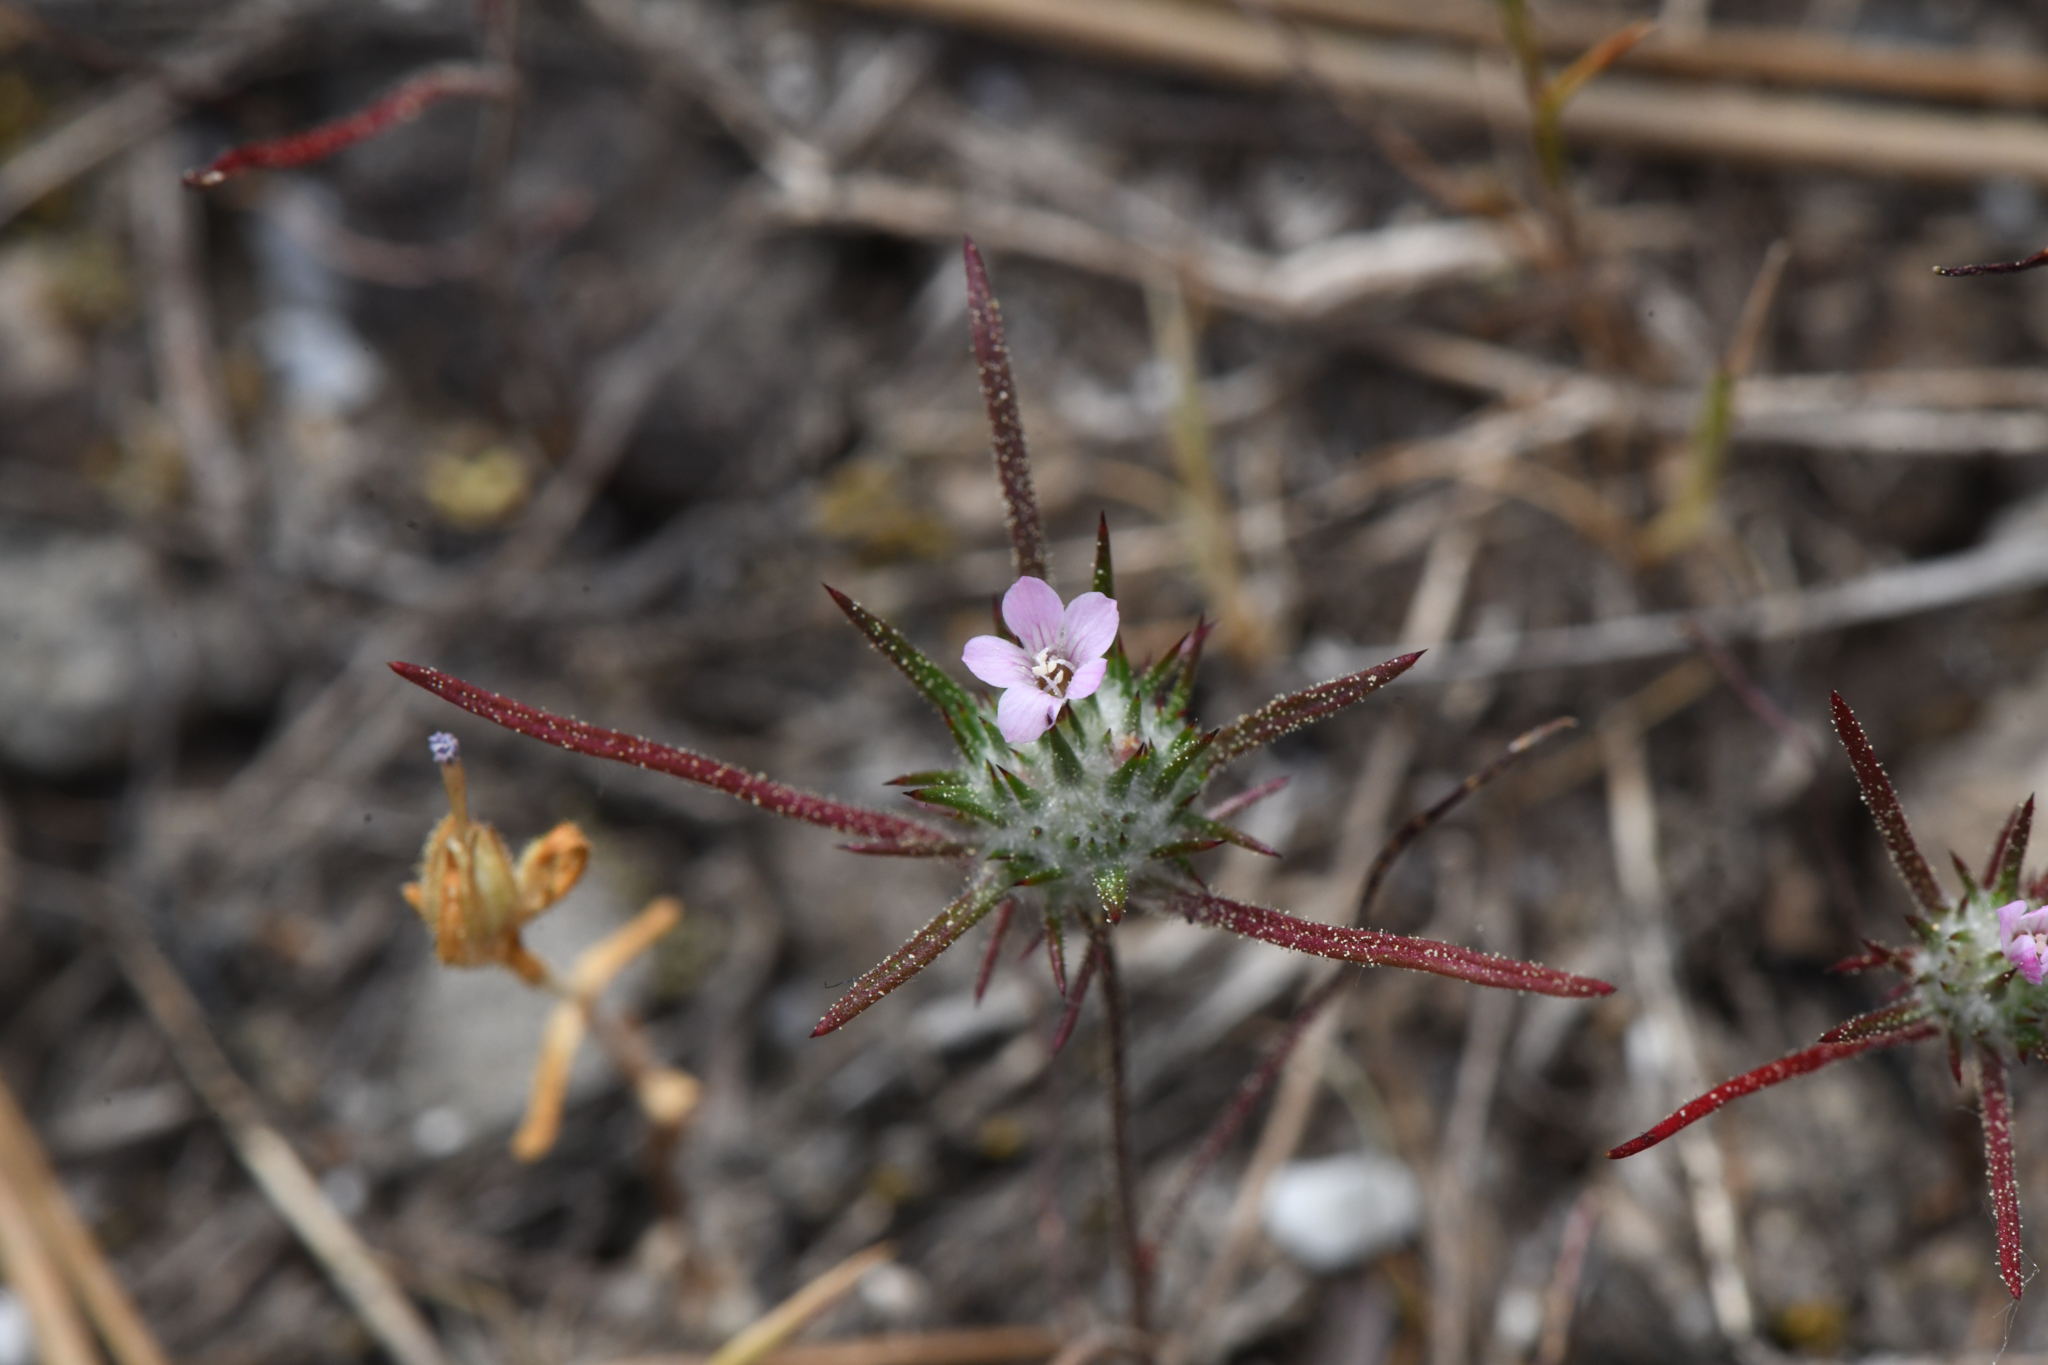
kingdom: Plantae
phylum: Tracheophyta
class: Magnoliopsida
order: Ericales
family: Polemoniaceae
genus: Navarretia
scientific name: Navarretia crystallina
